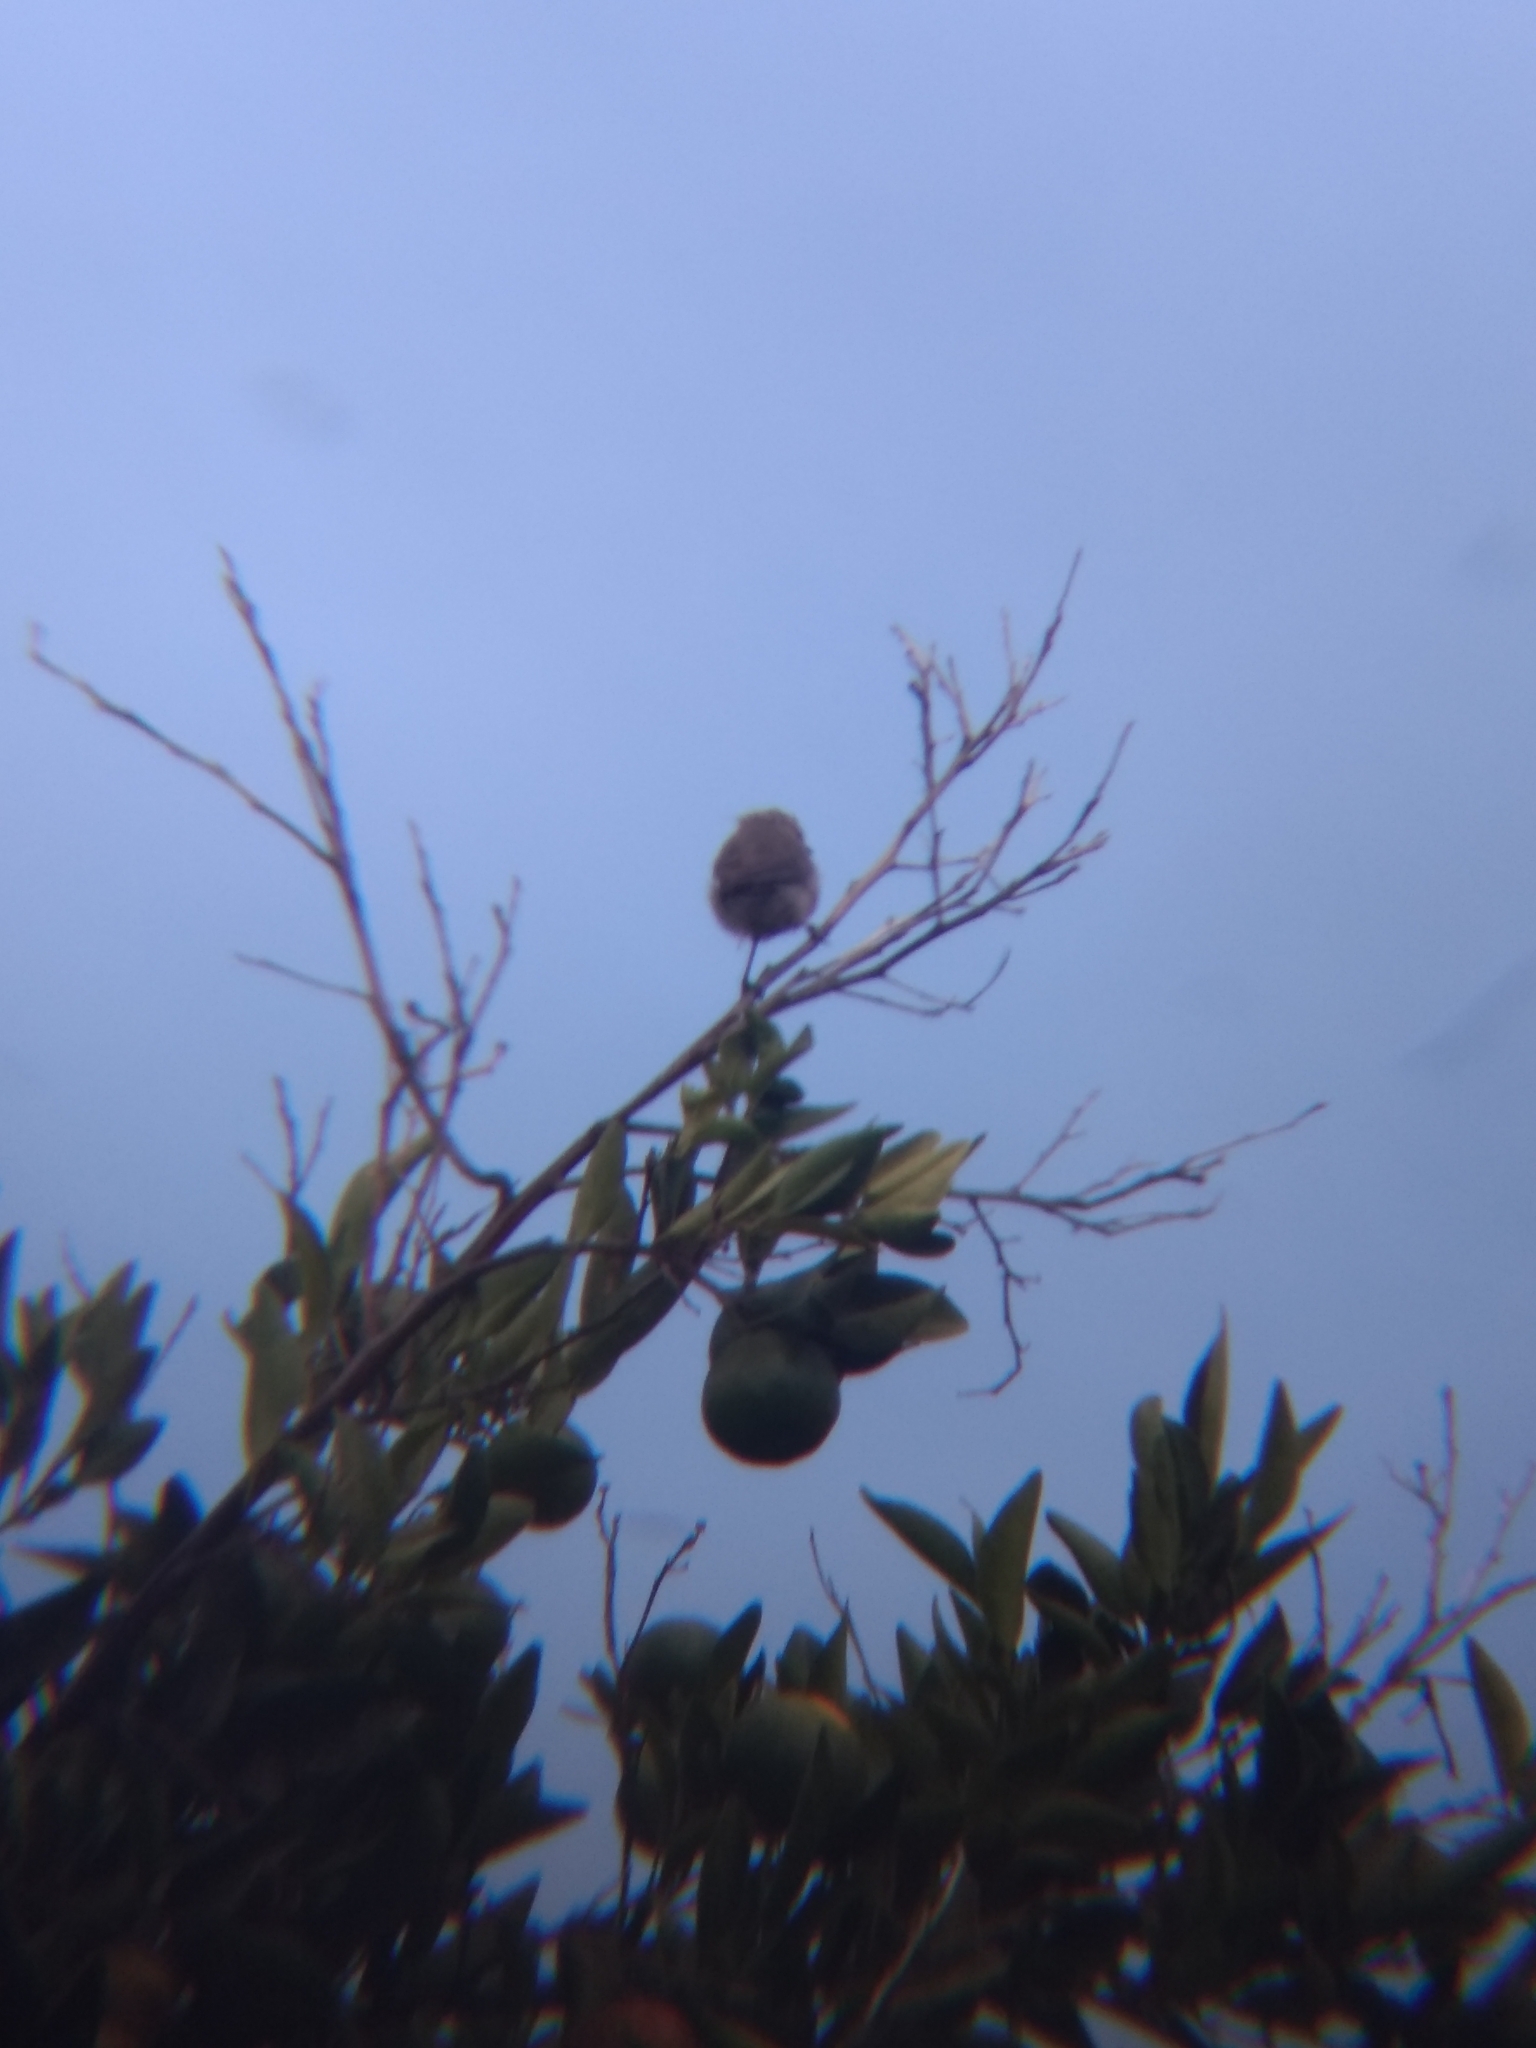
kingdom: Animalia
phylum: Chordata
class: Aves
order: Passeriformes
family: Aegithalidae
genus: Psaltriparus
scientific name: Psaltriparus minimus
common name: American bushtit
